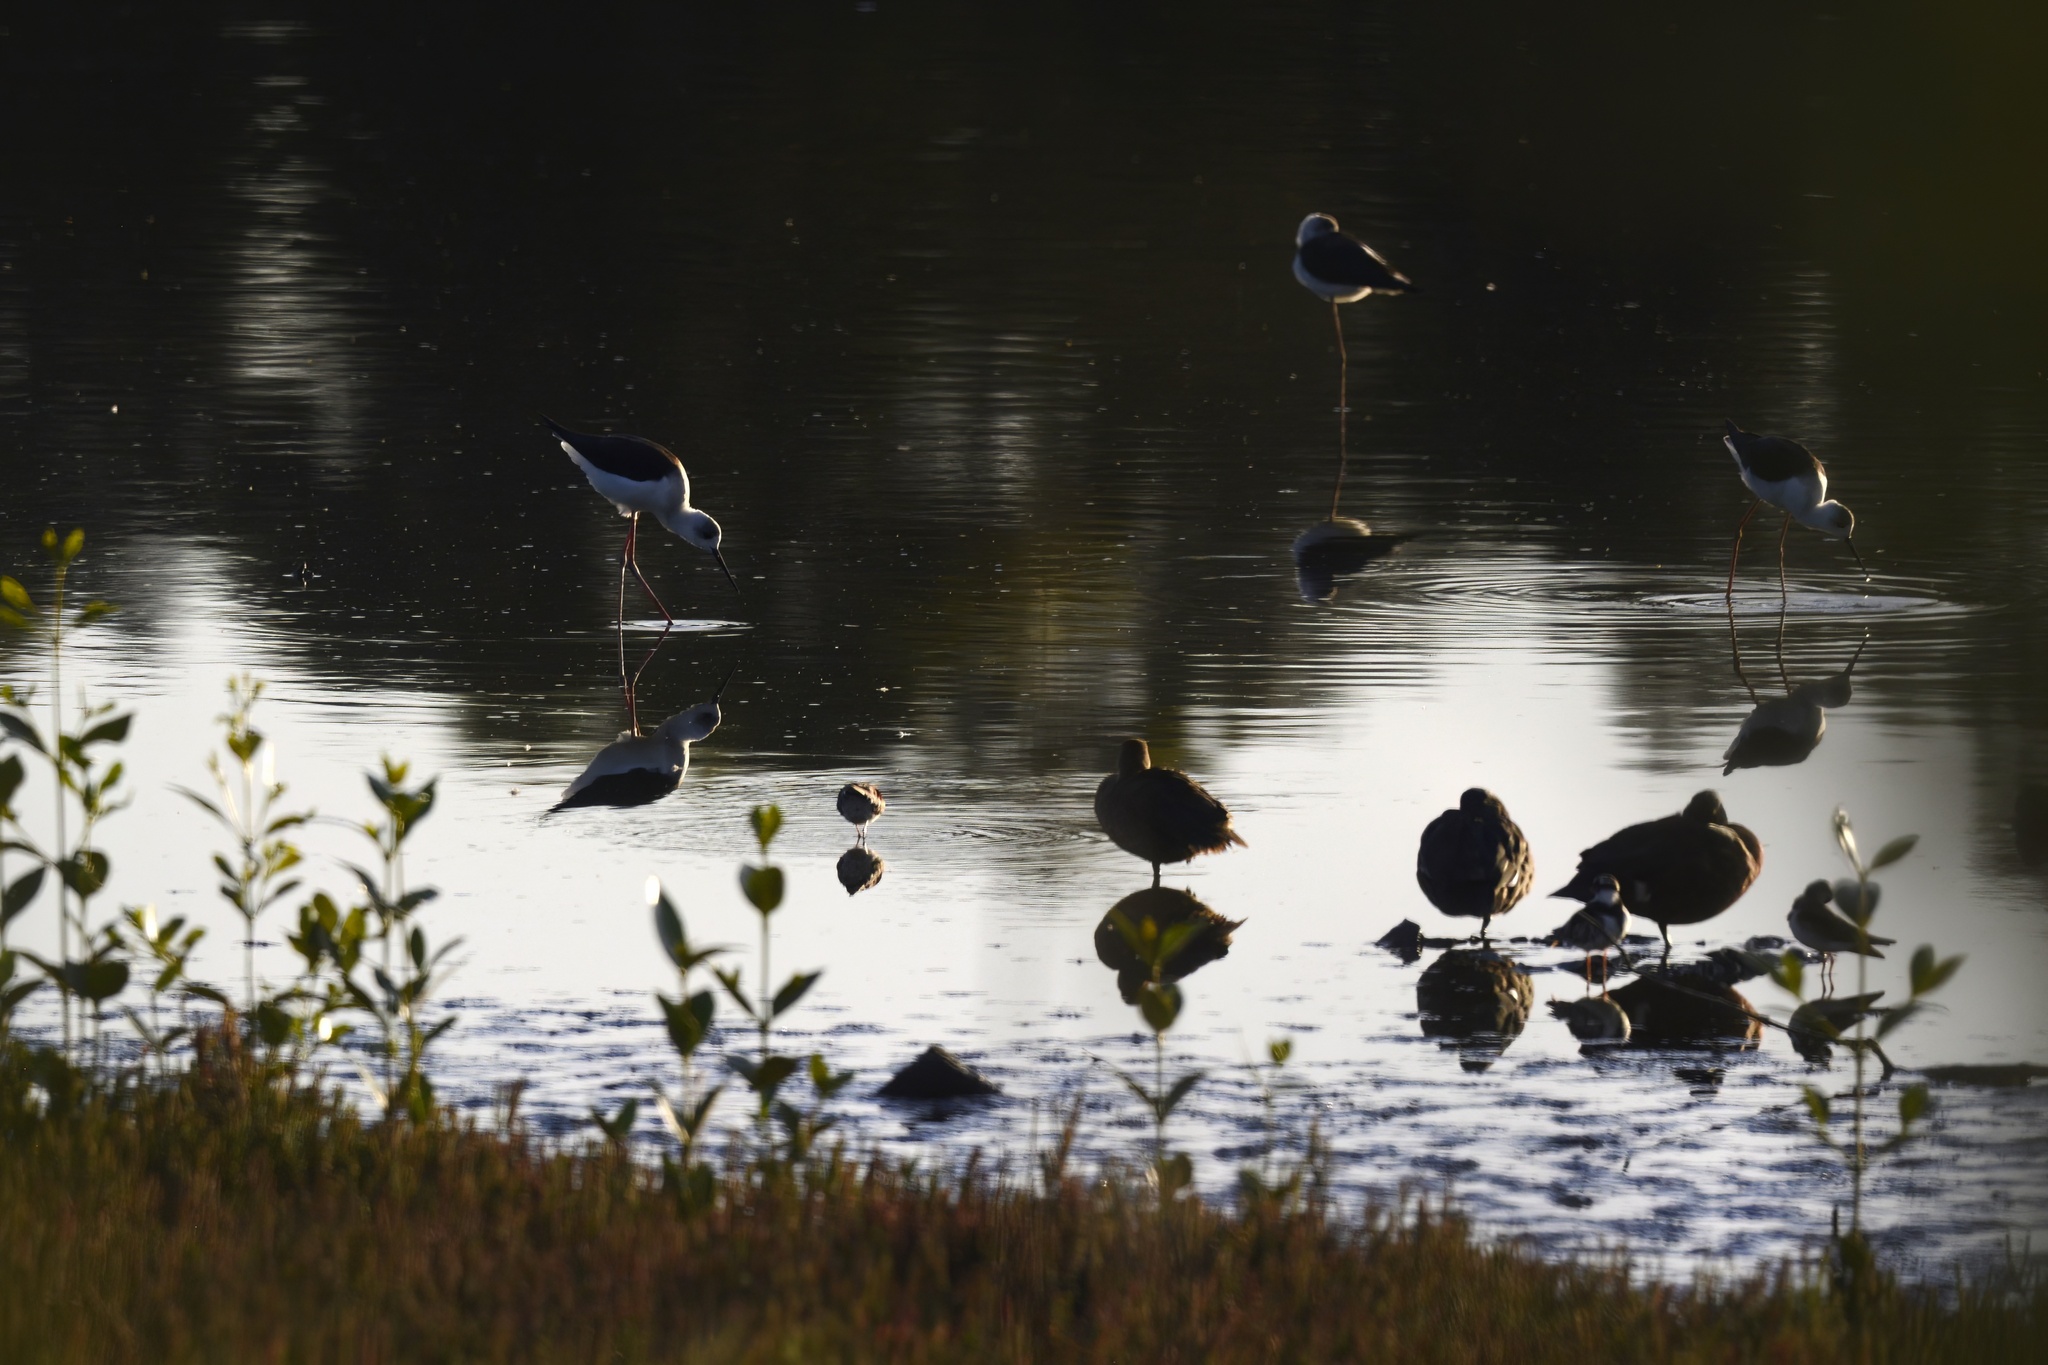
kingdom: Animalia
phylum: Chordata
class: Aves
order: Charadriiformes
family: Recurvirostridae
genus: Himantopus
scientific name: Himantopus leucocephalus
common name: White-headed stilt
